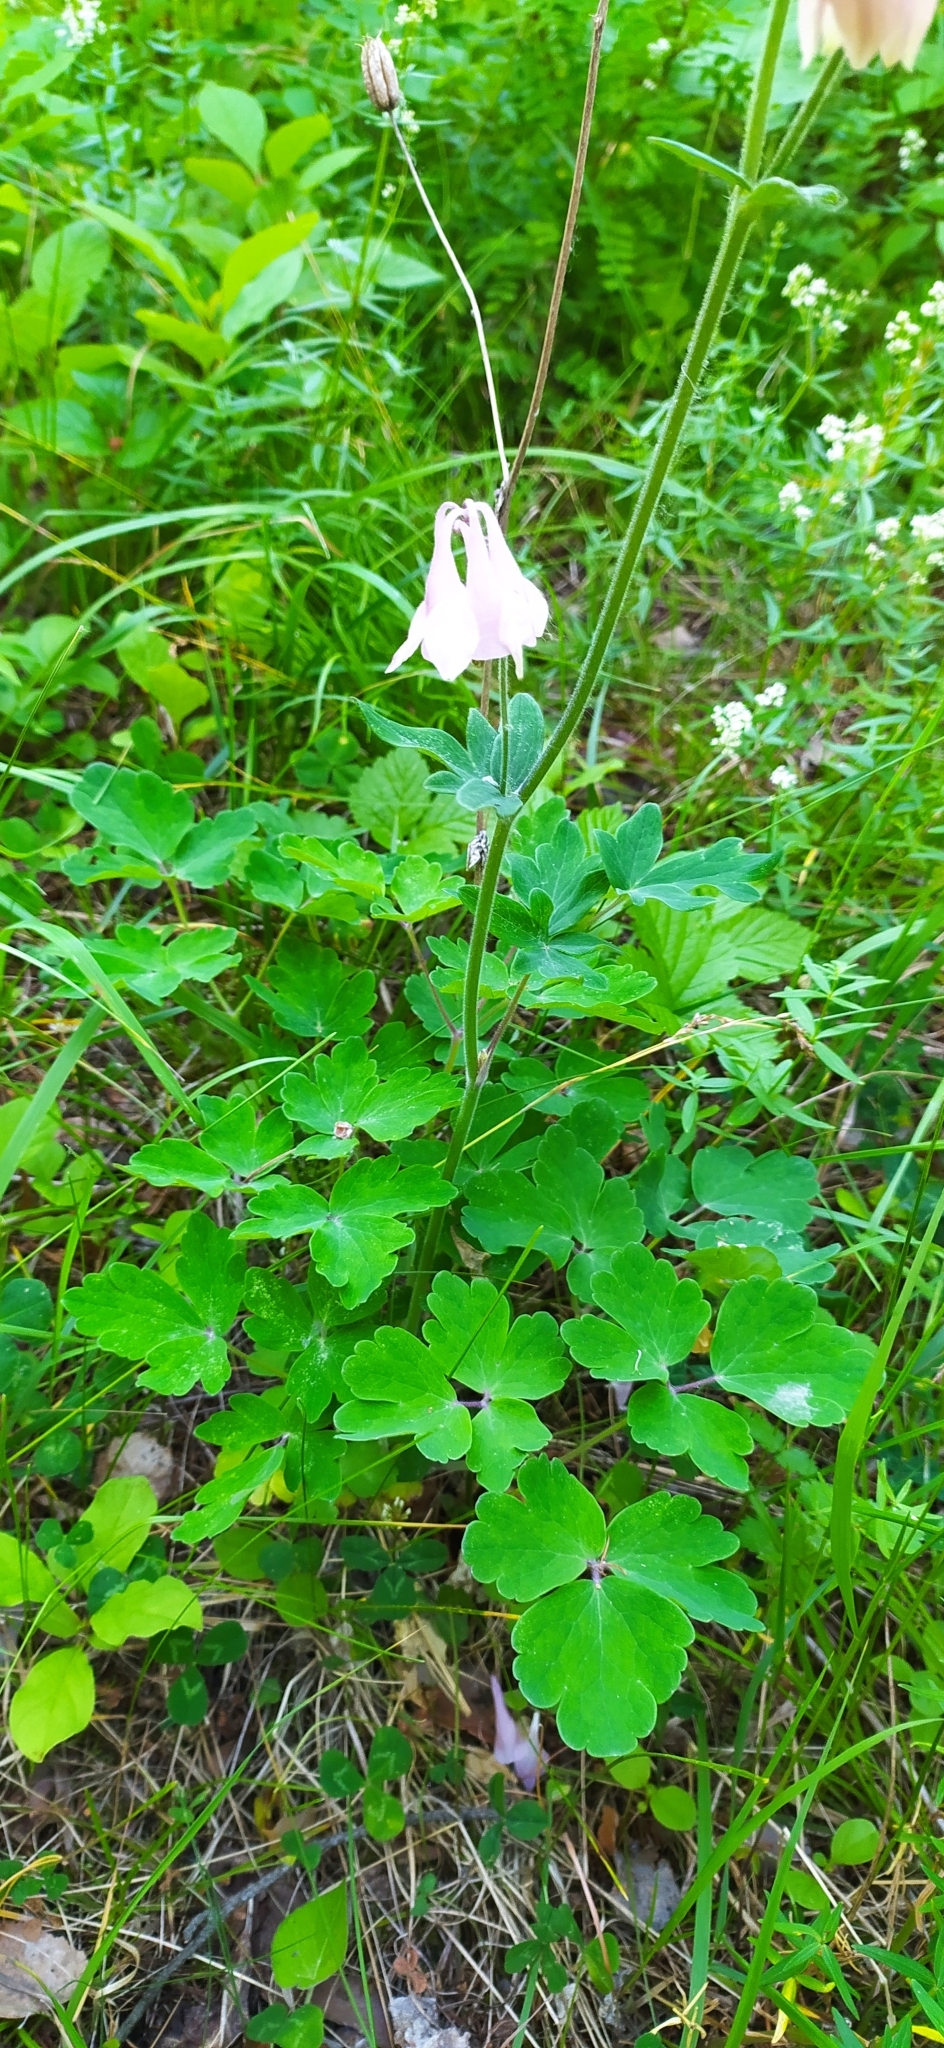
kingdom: Plantae
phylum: Tracheophyta
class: Magnoliopsida
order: Ranunculales
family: Ranunculaceae
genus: Aquilegia
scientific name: Aquilegia vulgaris
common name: Columbine
